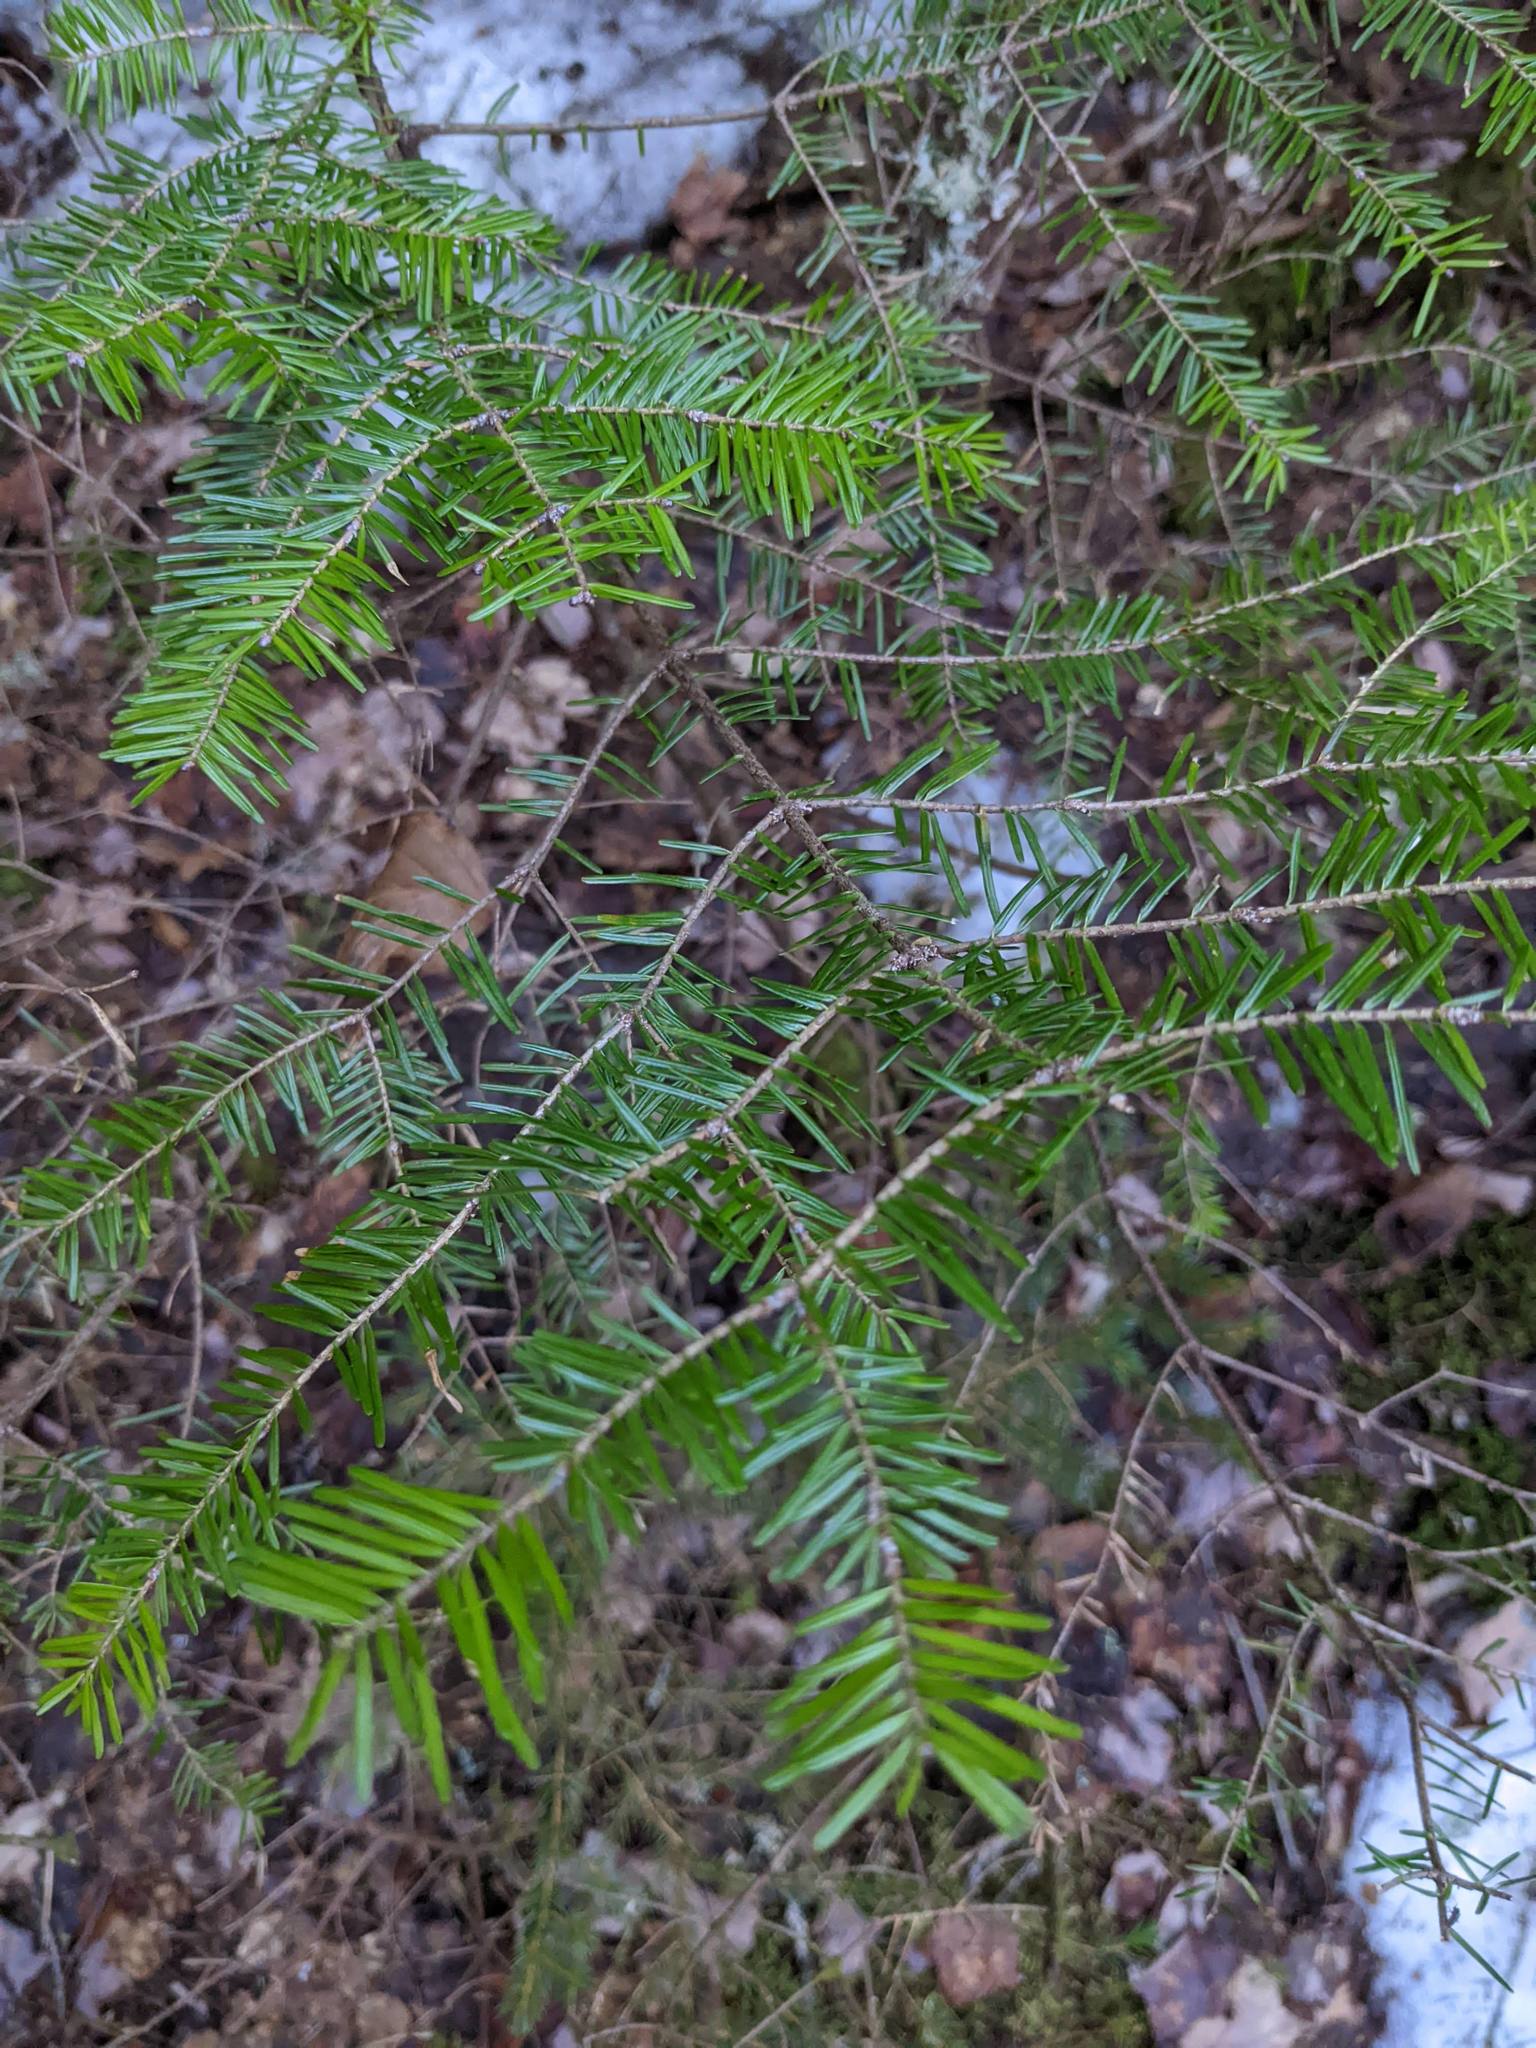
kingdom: Plantae
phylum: Tracheophyta
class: Pinopsida
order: Pinales
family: Pinaceae
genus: Abies
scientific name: Abies balsamea
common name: Balsam fir
